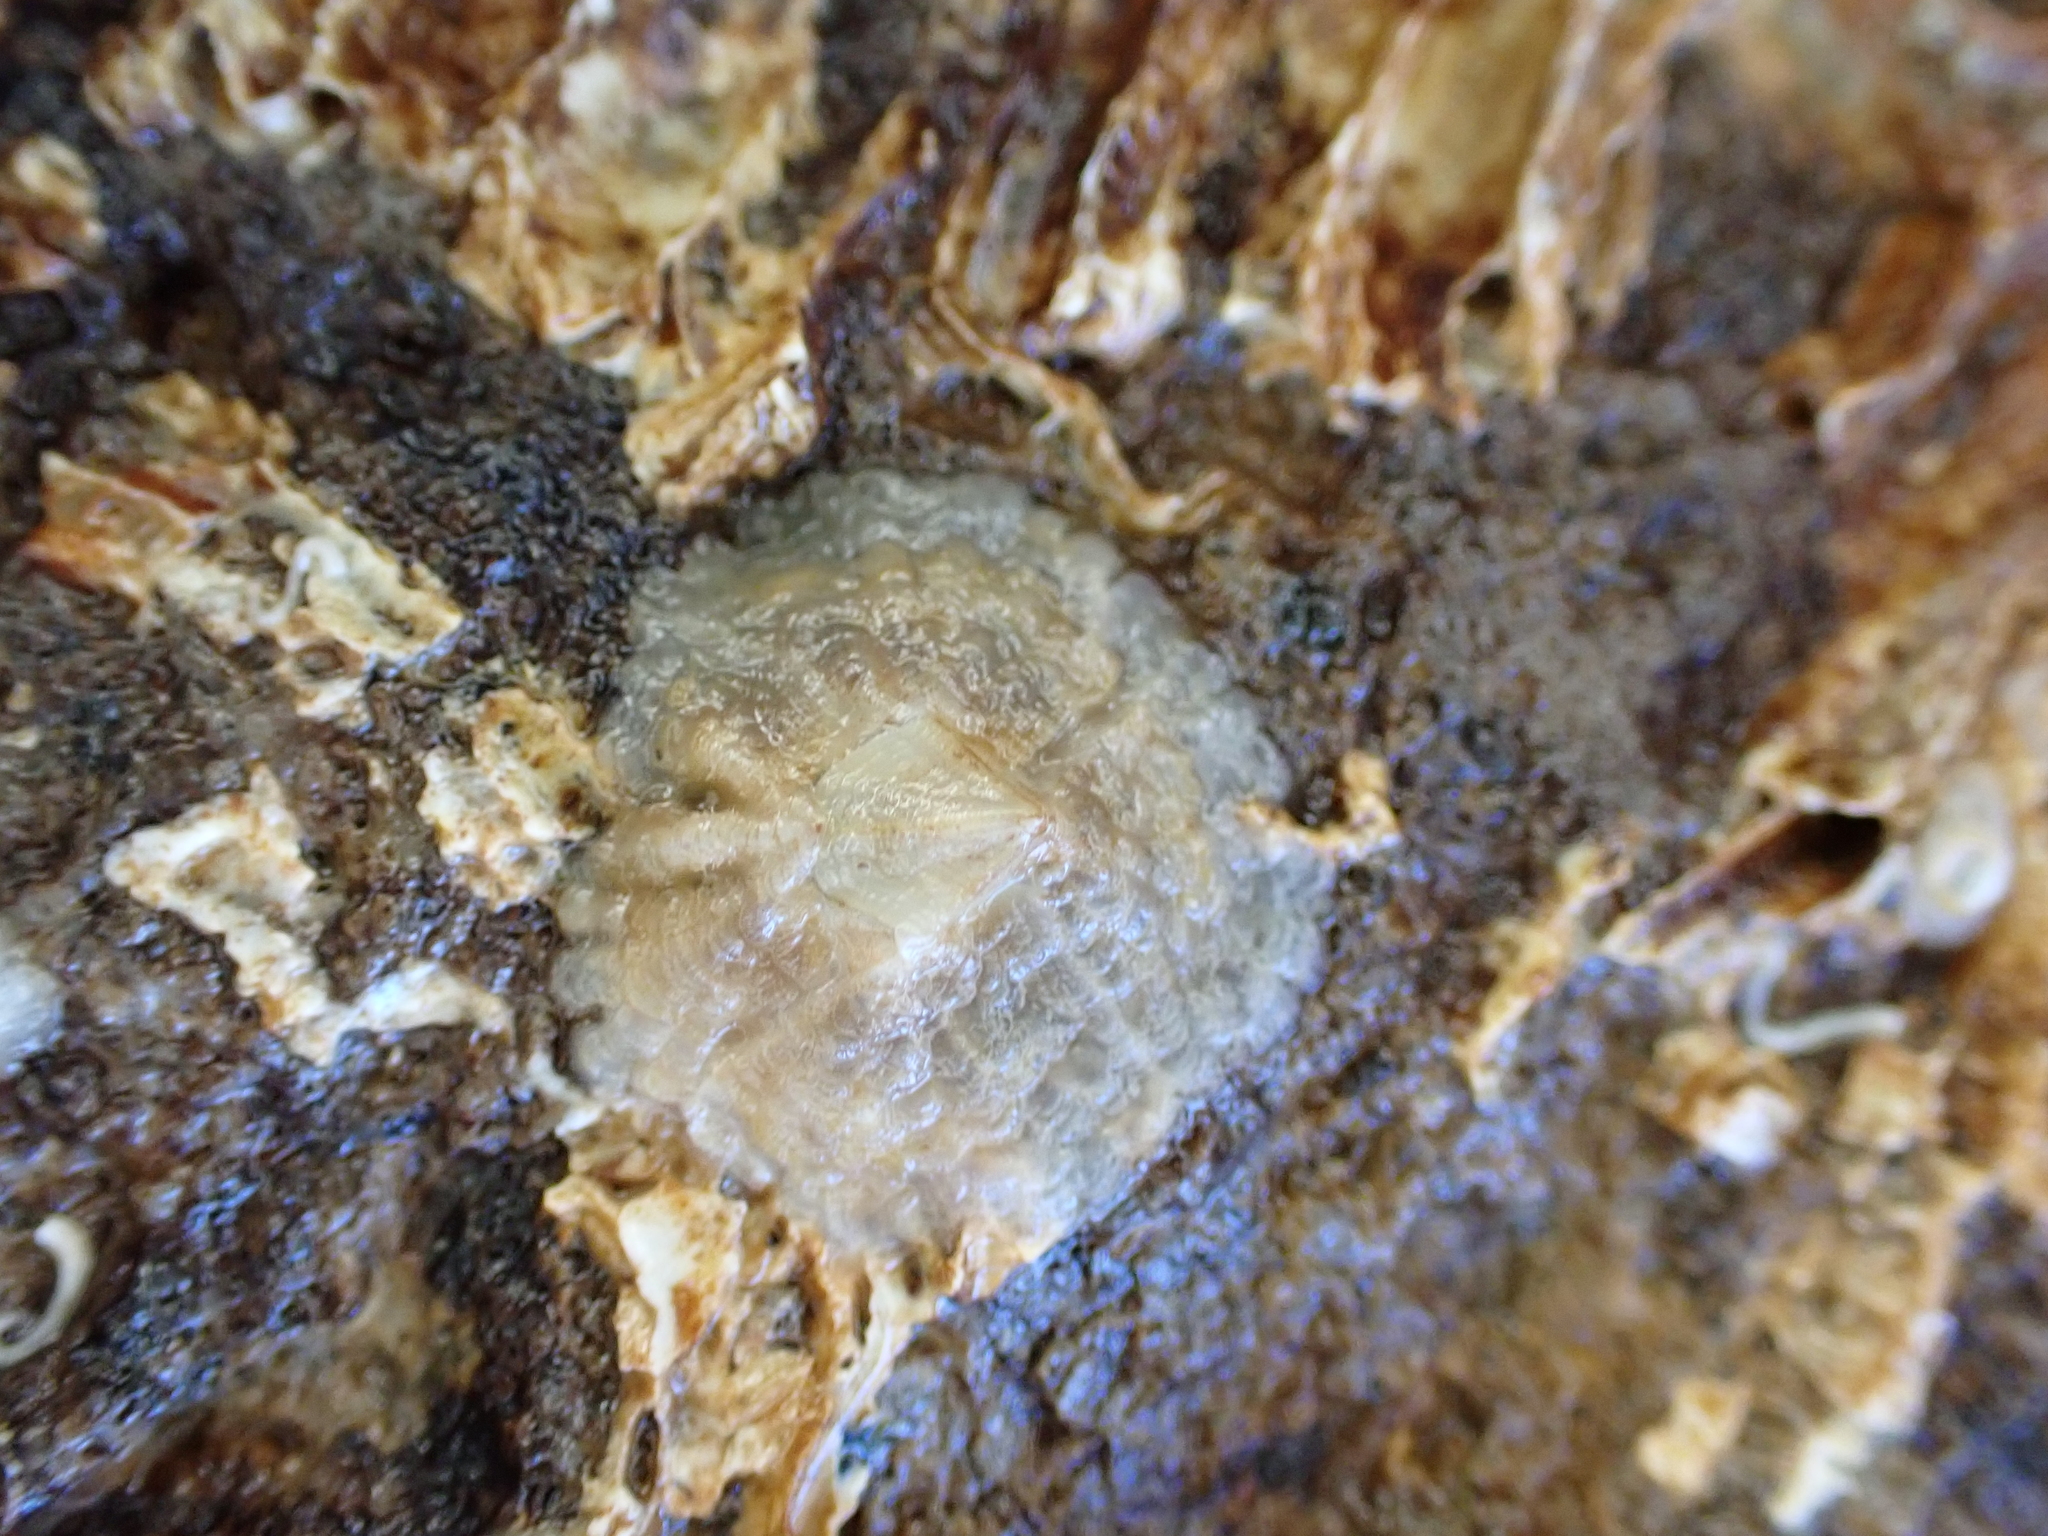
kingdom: Animalia
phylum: Arthropoda
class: Maxillopoda
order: Sessilia
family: Tetraclitidae
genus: Tetraclitella
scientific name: Tetraclitella depressa
